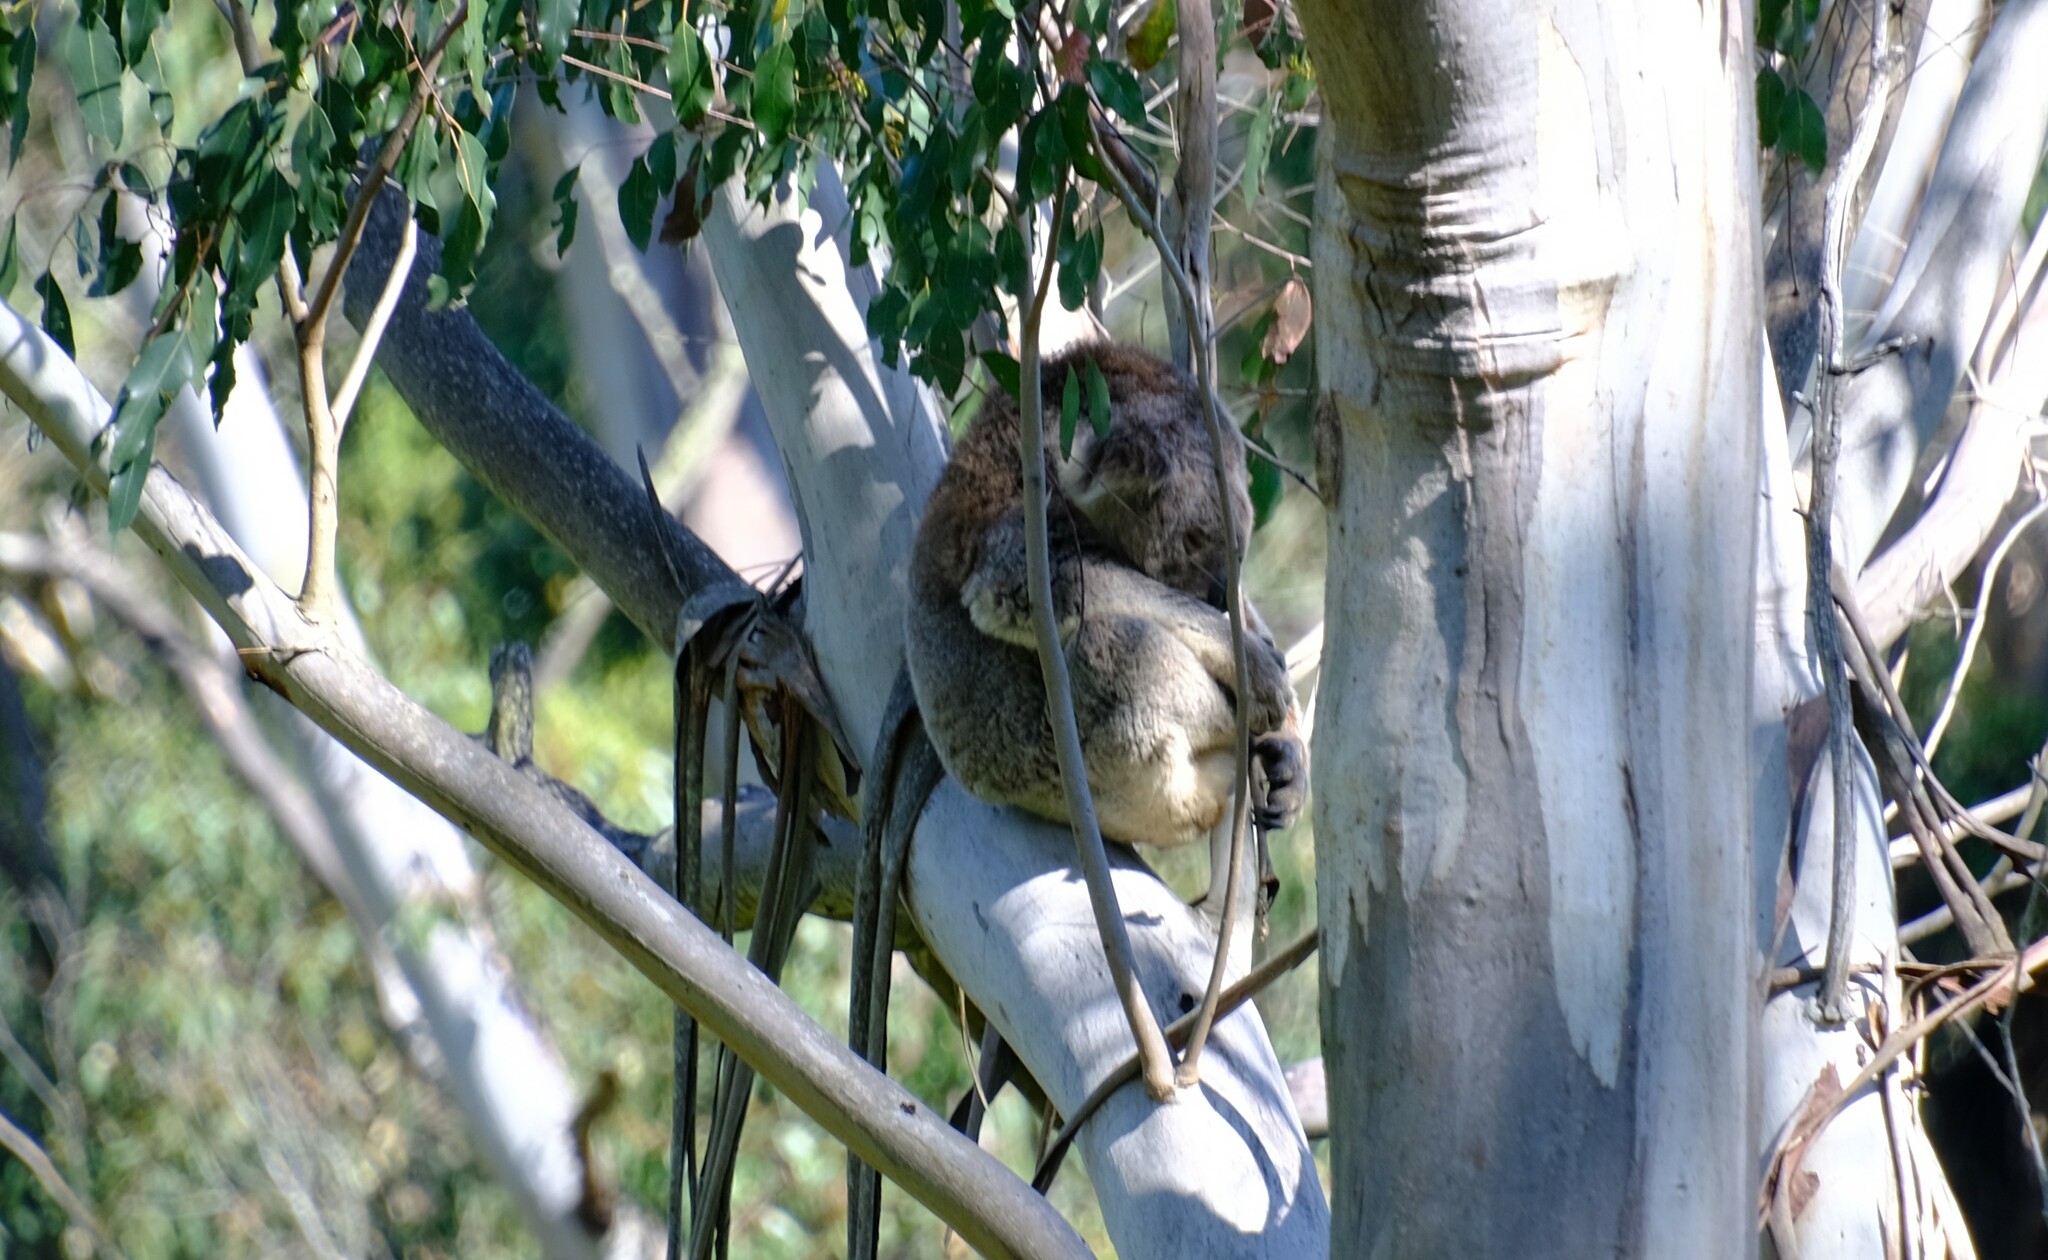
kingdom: Animalia
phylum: Chordata
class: Mammalia
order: Diprotodontia
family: Phascolarctidae
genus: Phascolarctos
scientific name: Phascolarctos cinereus
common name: Koala
